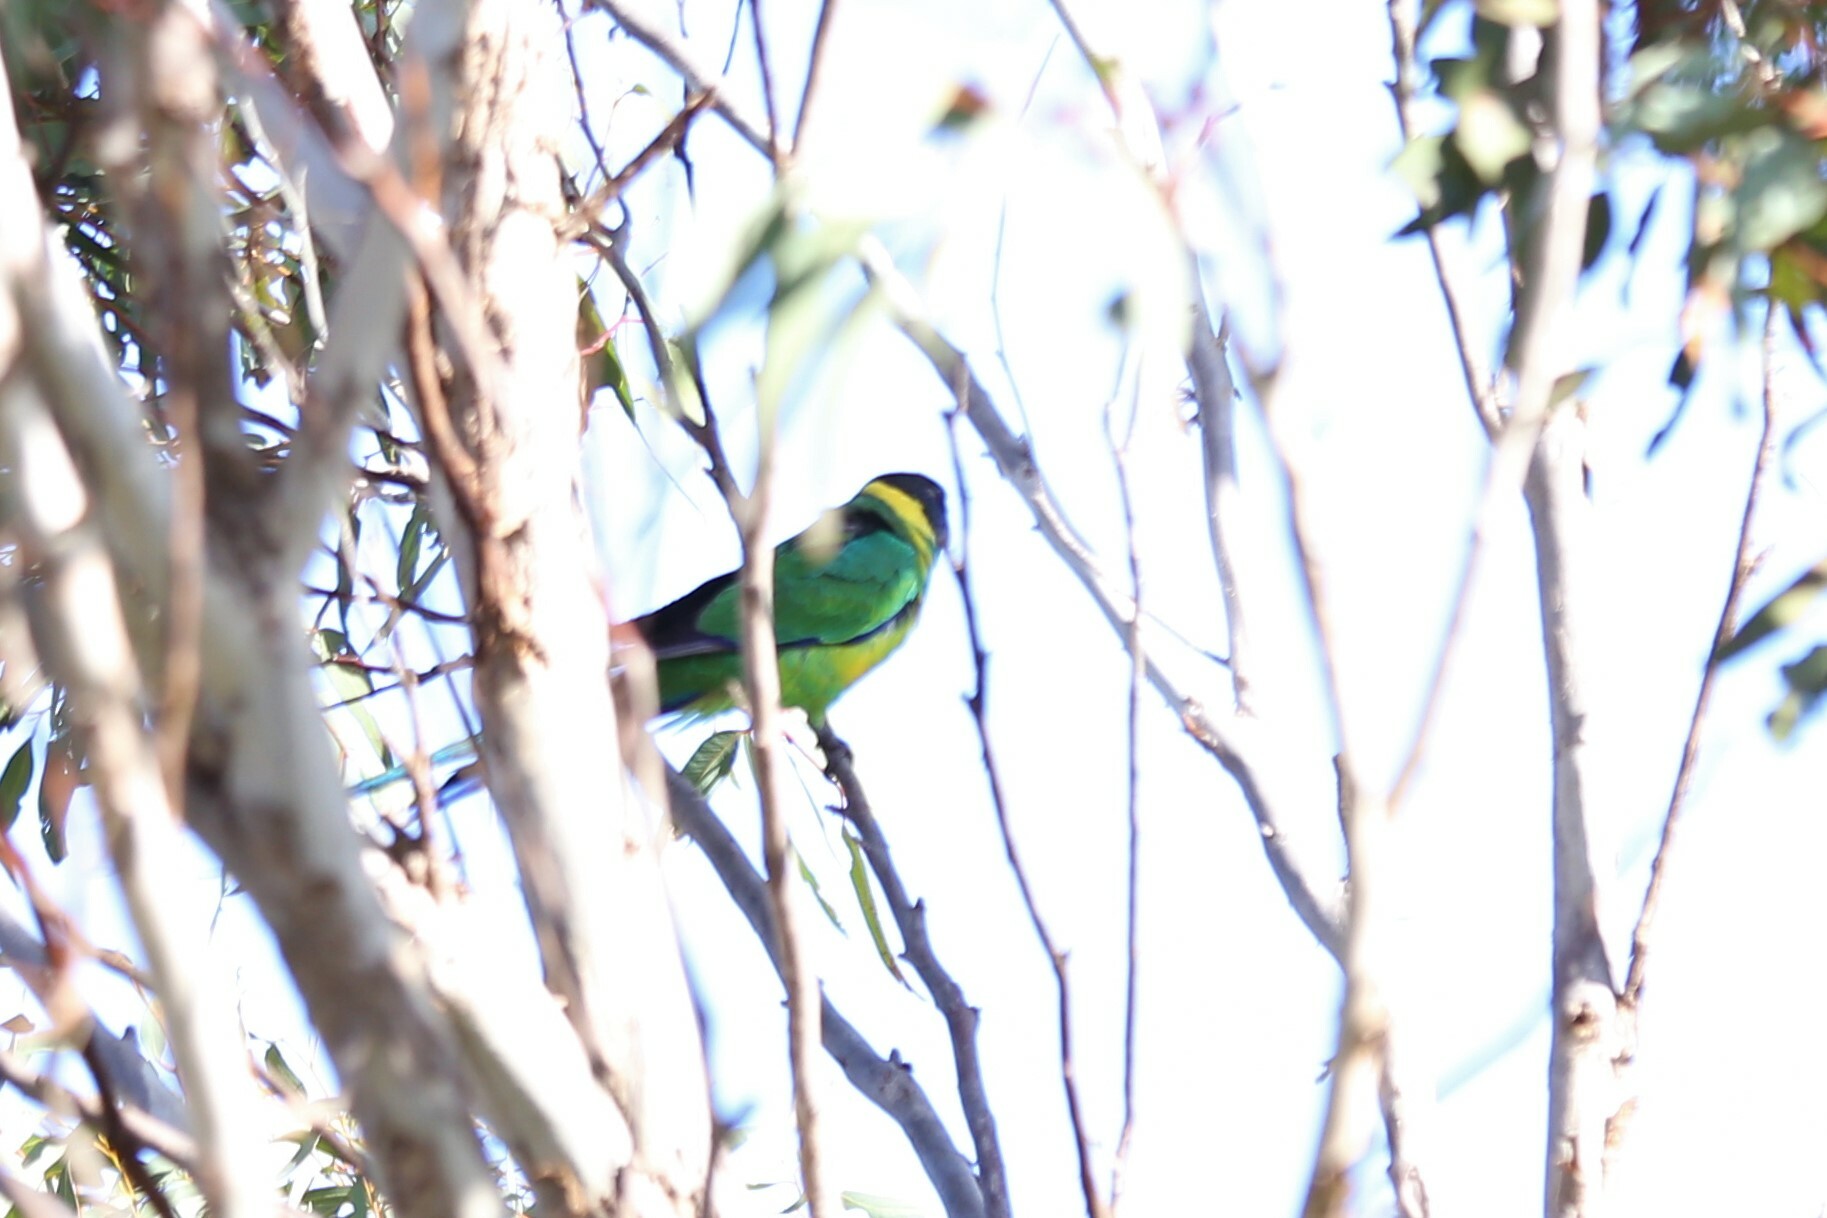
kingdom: Animalia
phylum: Chordata
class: Aves
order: Psittaciformes
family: Psittacidae
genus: Barnardius
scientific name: Barnardius zonarius
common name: Australian ringneck
